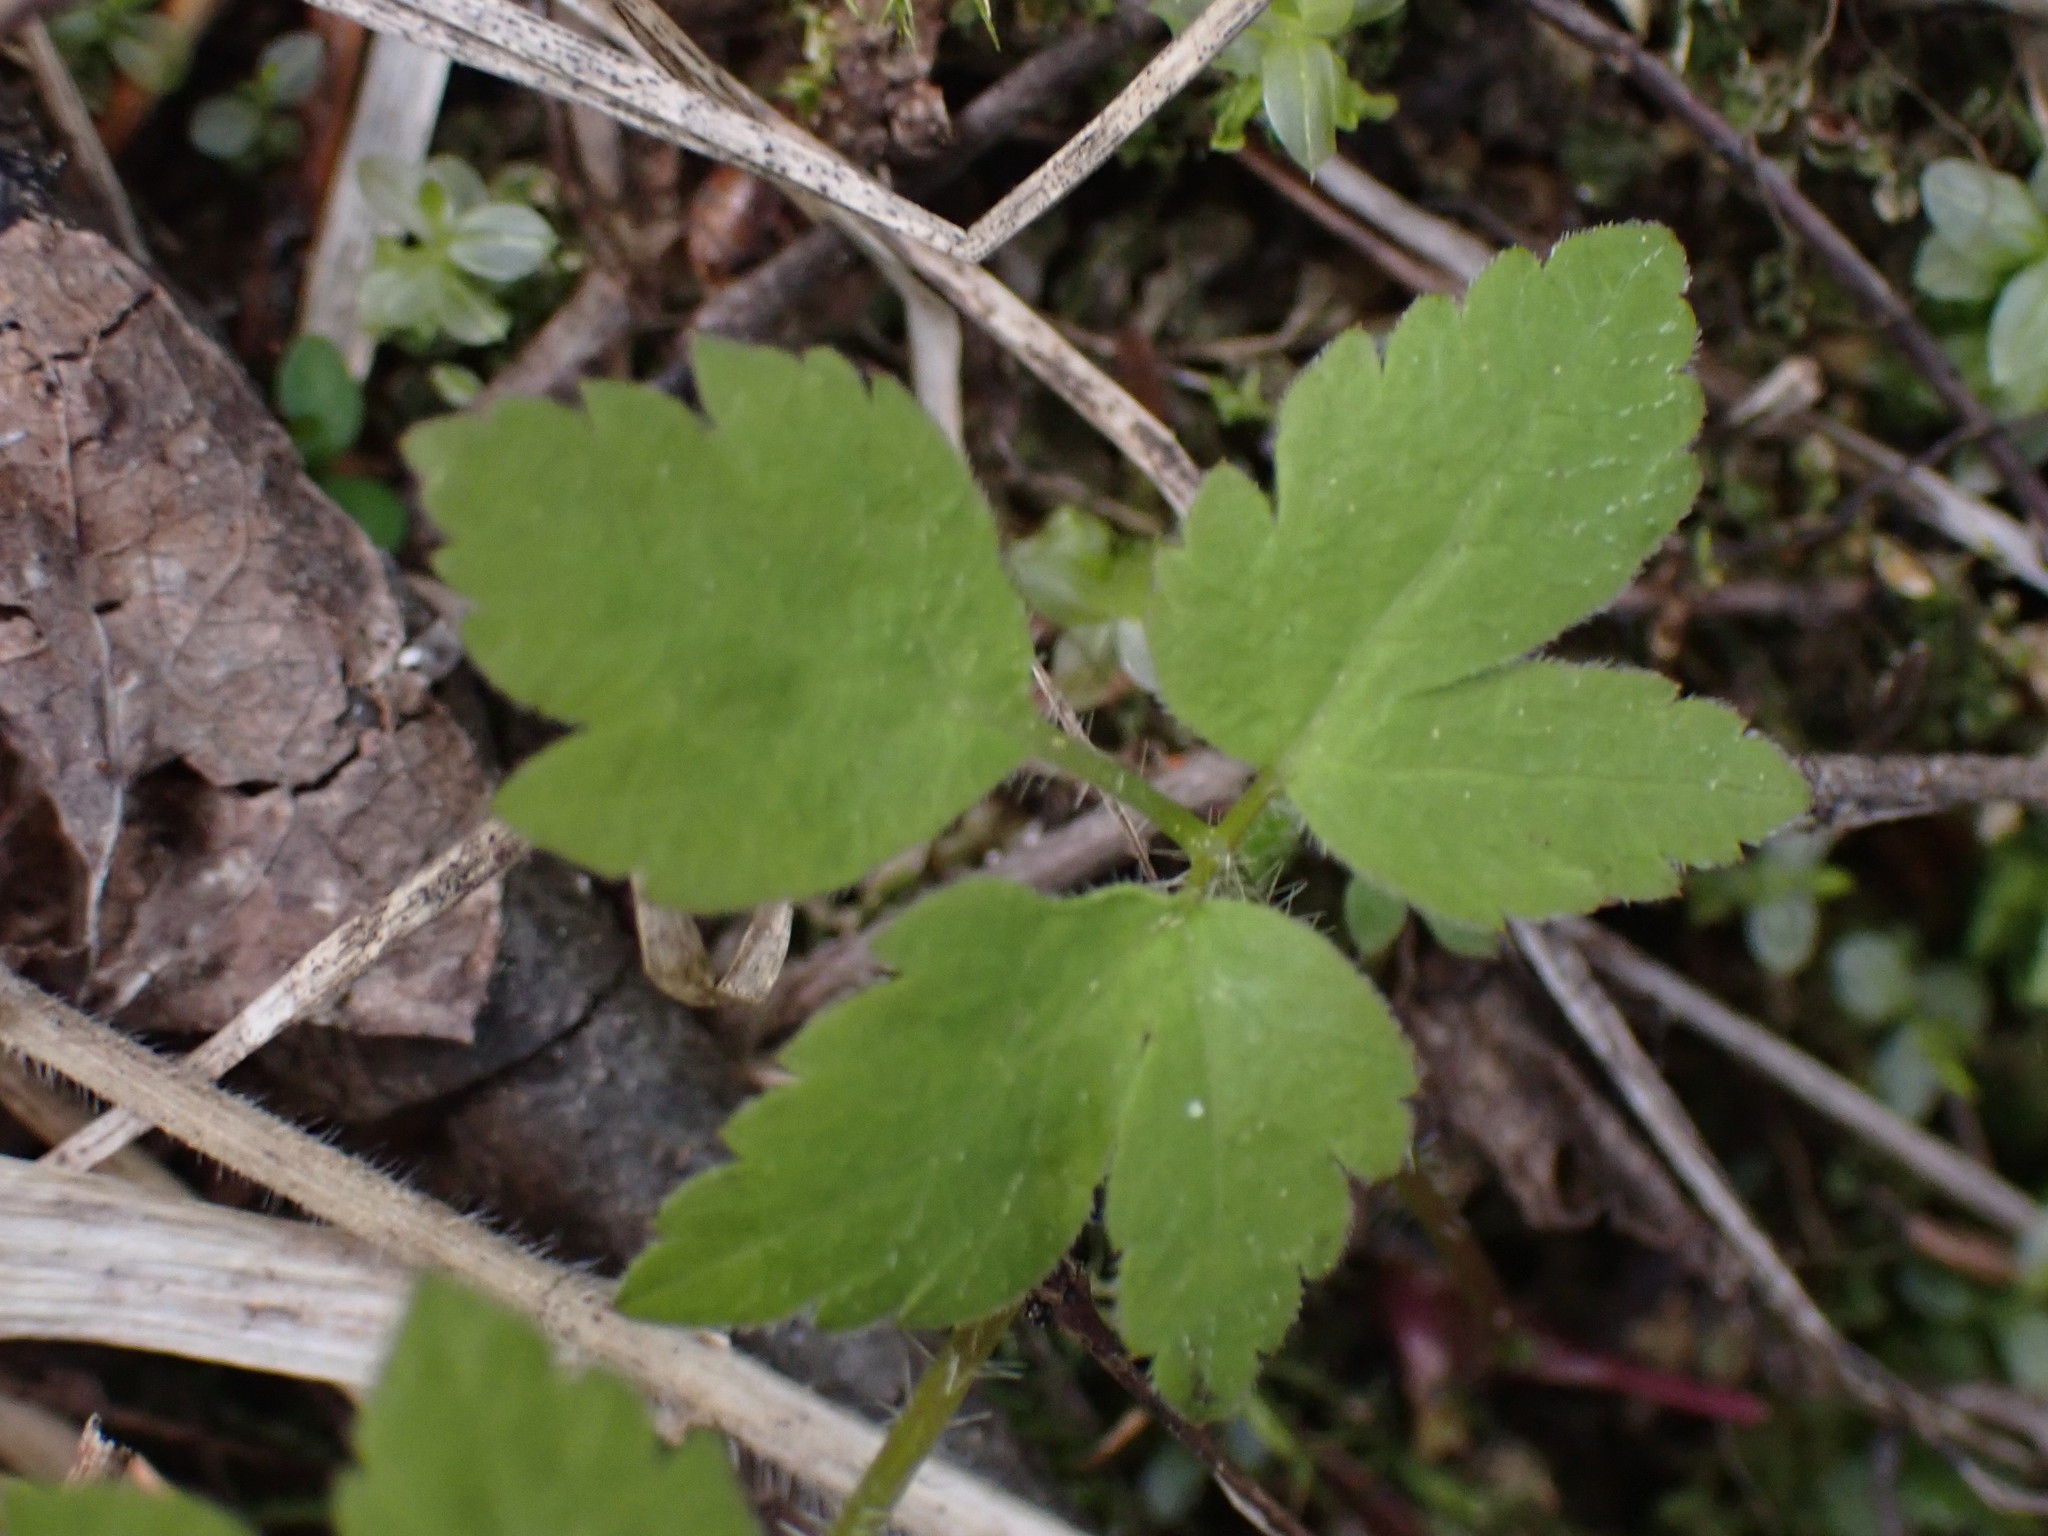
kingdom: Plantae
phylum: Tracheophyta
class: Magnoliopsida
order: Apiales
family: Apiaceae
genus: Osmorhiza
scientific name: Osmorhiza berteroi
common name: Mountain sweet cicely
